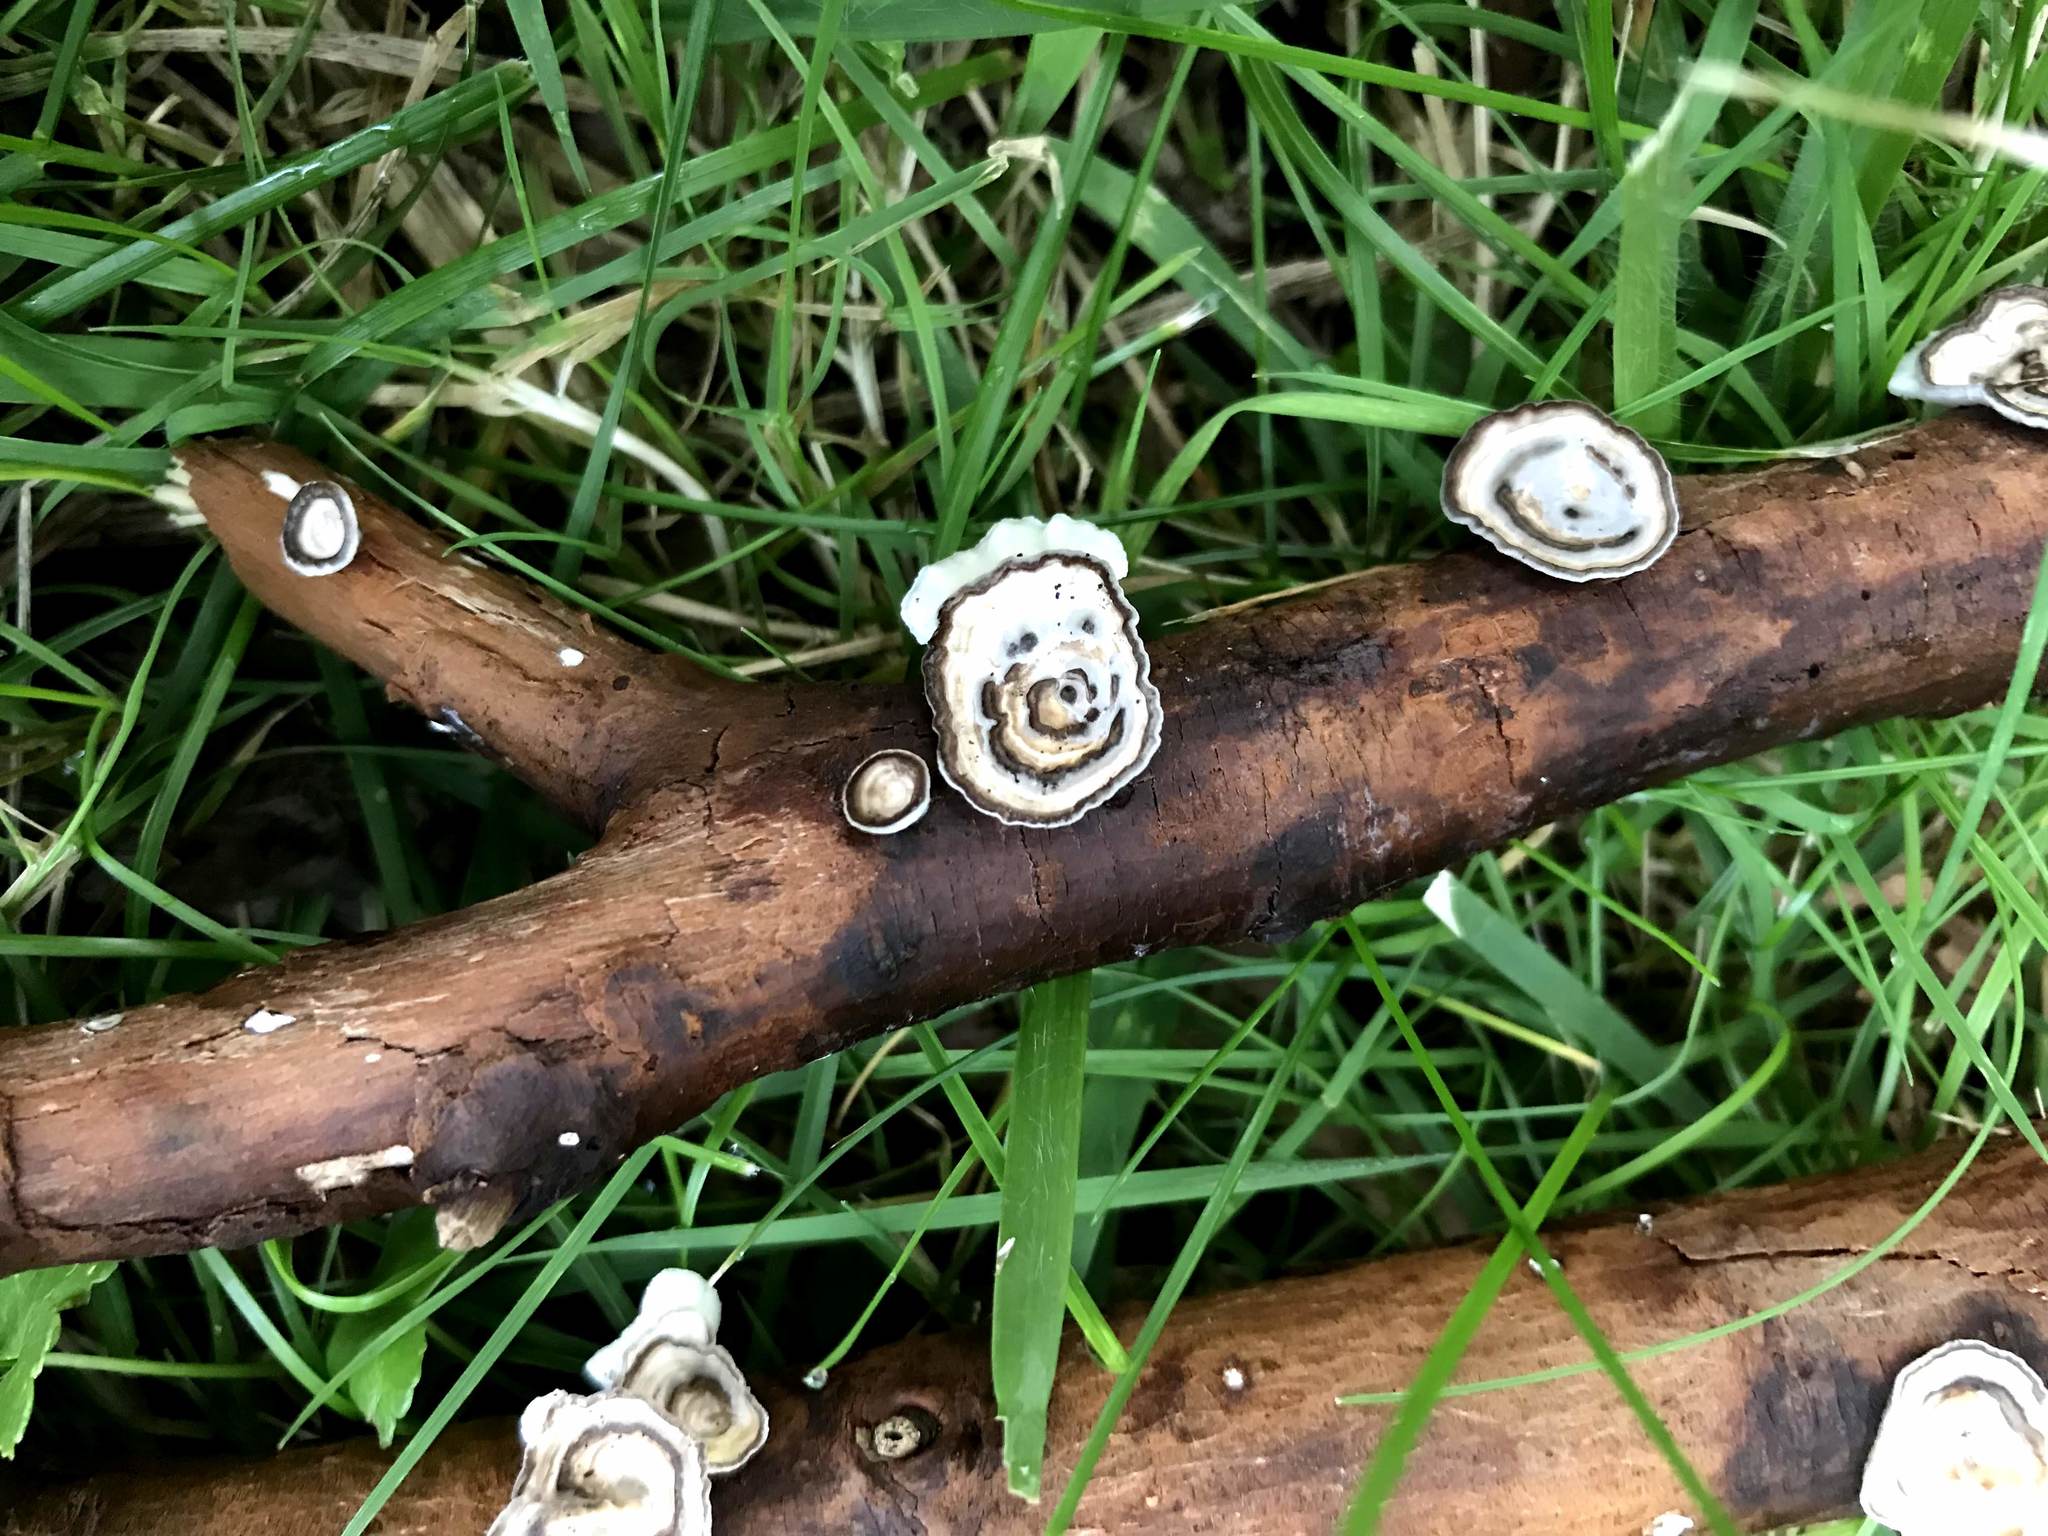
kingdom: Fungi
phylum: Basidiomycota
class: Agaricomycetes
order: Polyporales
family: Polyporaceae
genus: Poronidulus
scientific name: Poronidulus conchifer
